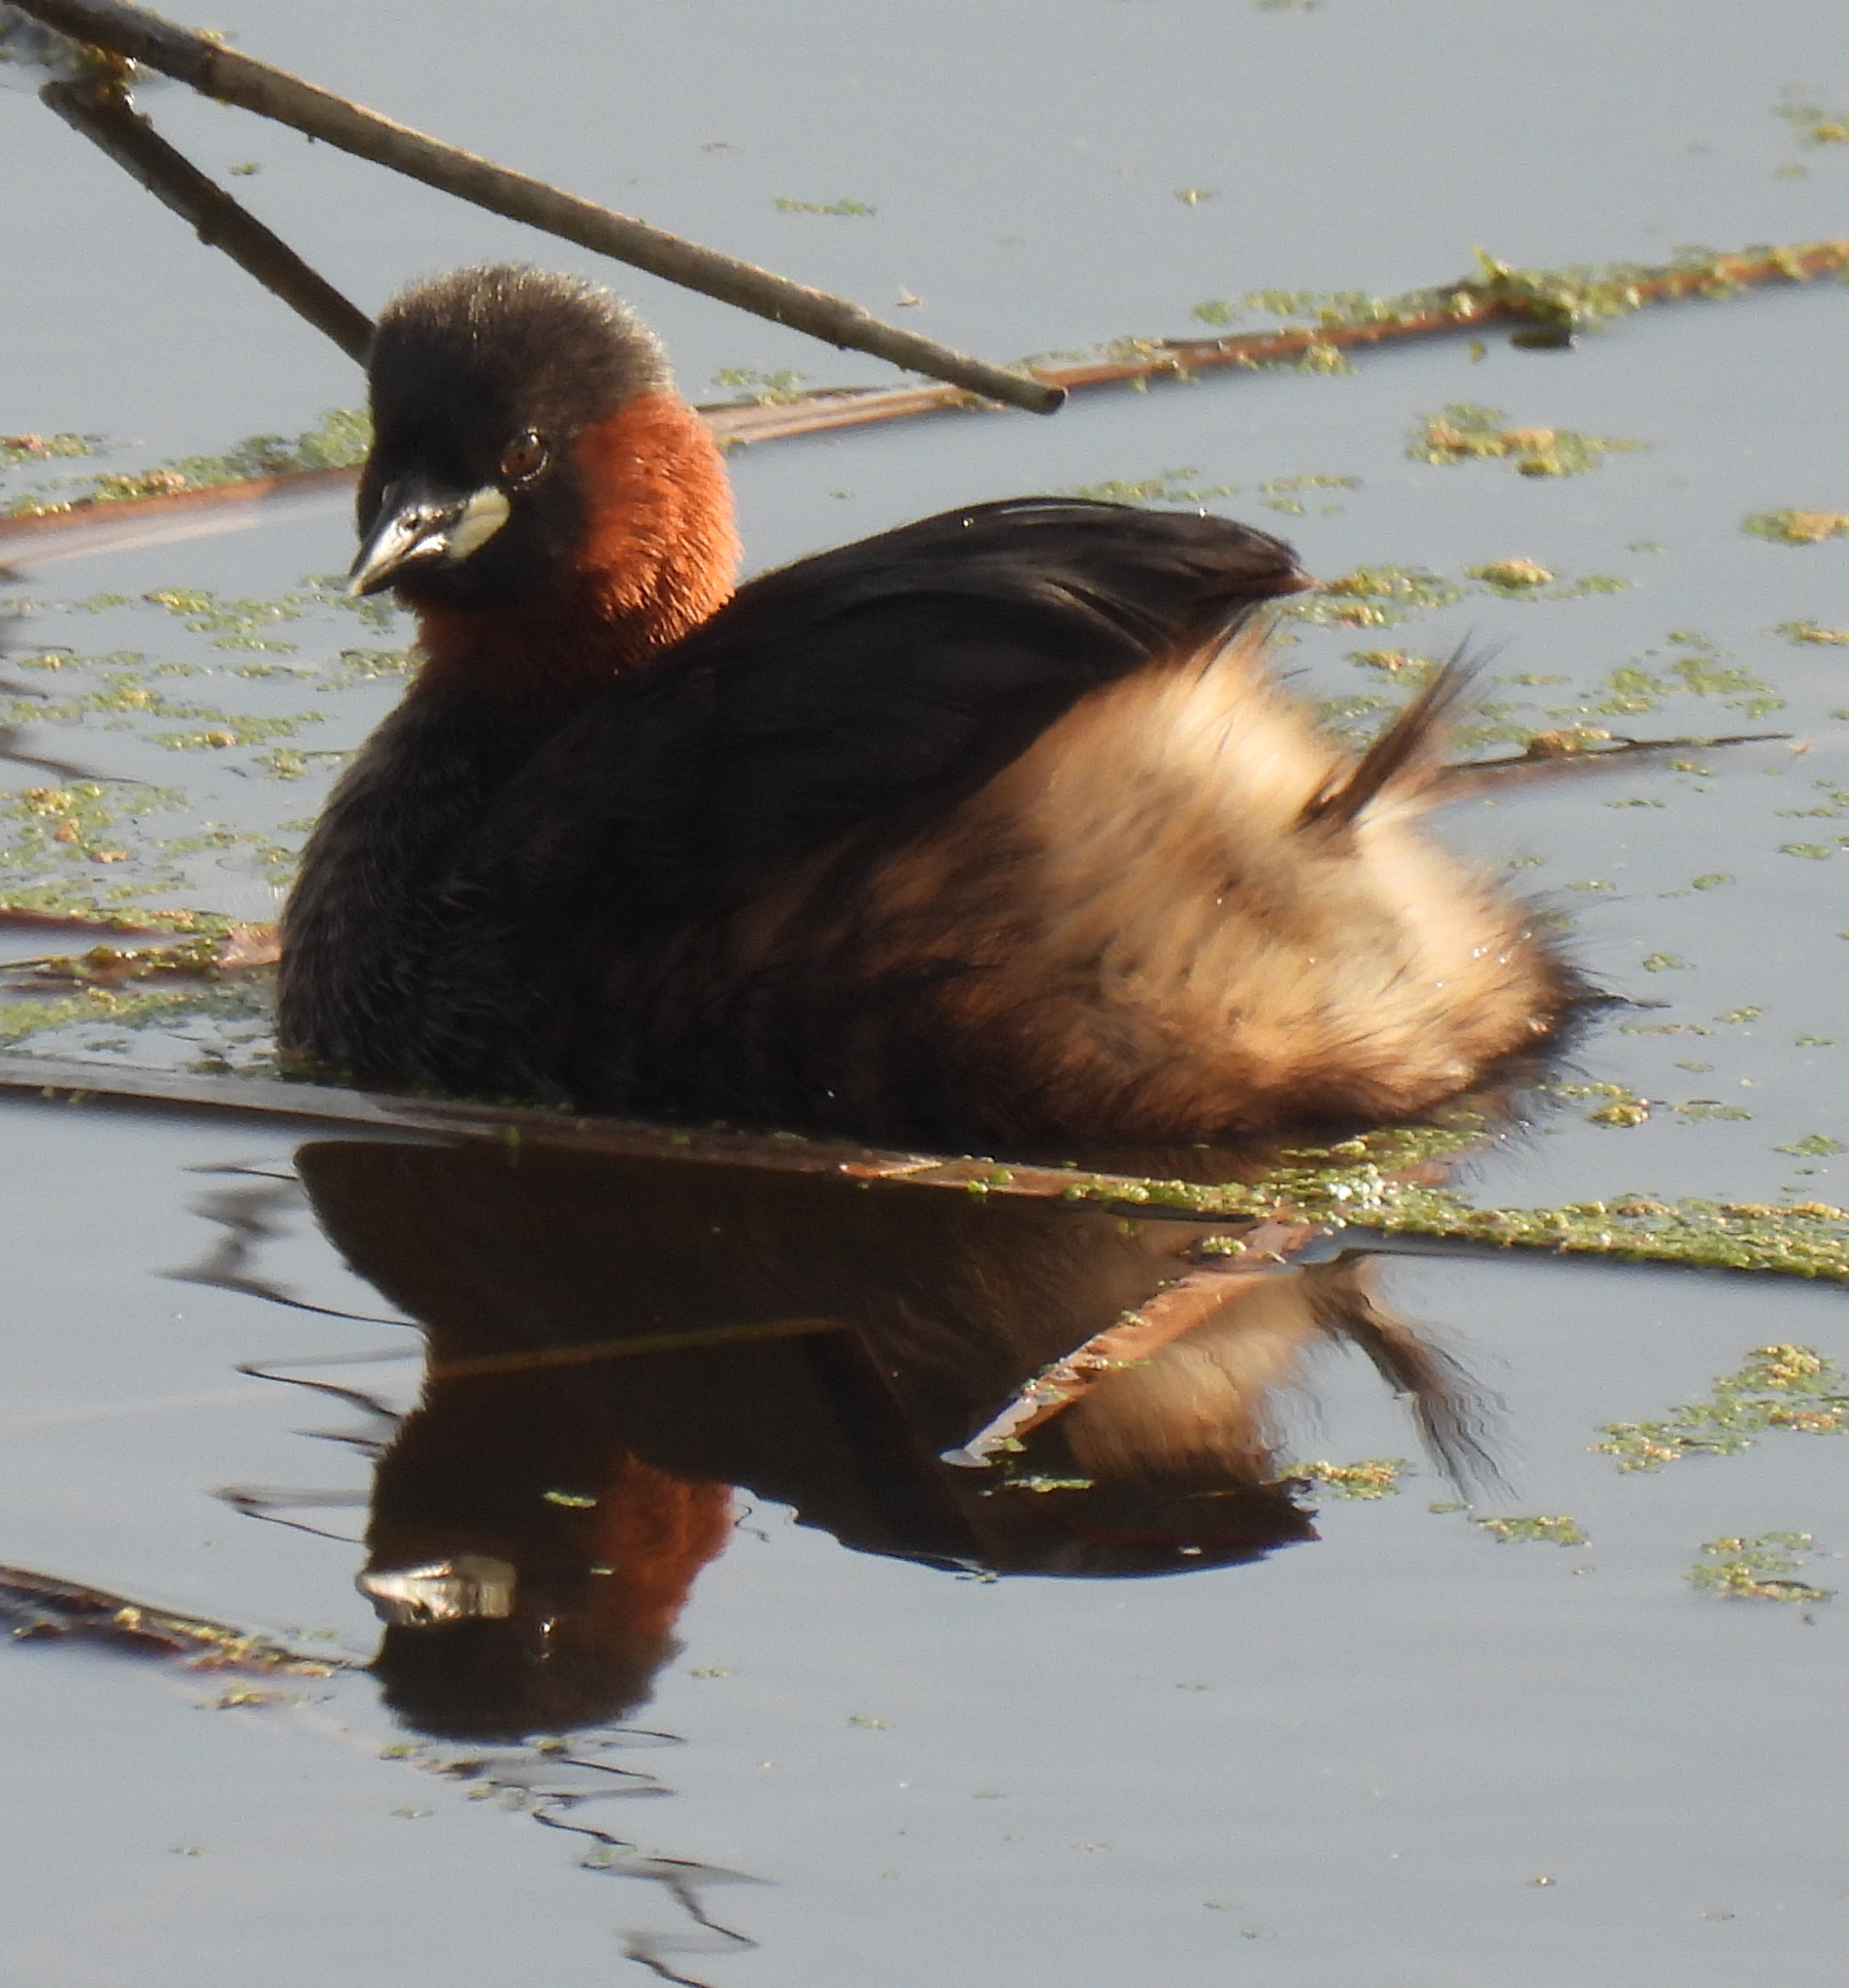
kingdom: Animalia
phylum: Chordata
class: Aves
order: Podicipediformes
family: Podicipedidae
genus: Tachybaptus
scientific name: Tachybaptus ruficollis
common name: Little grebe
